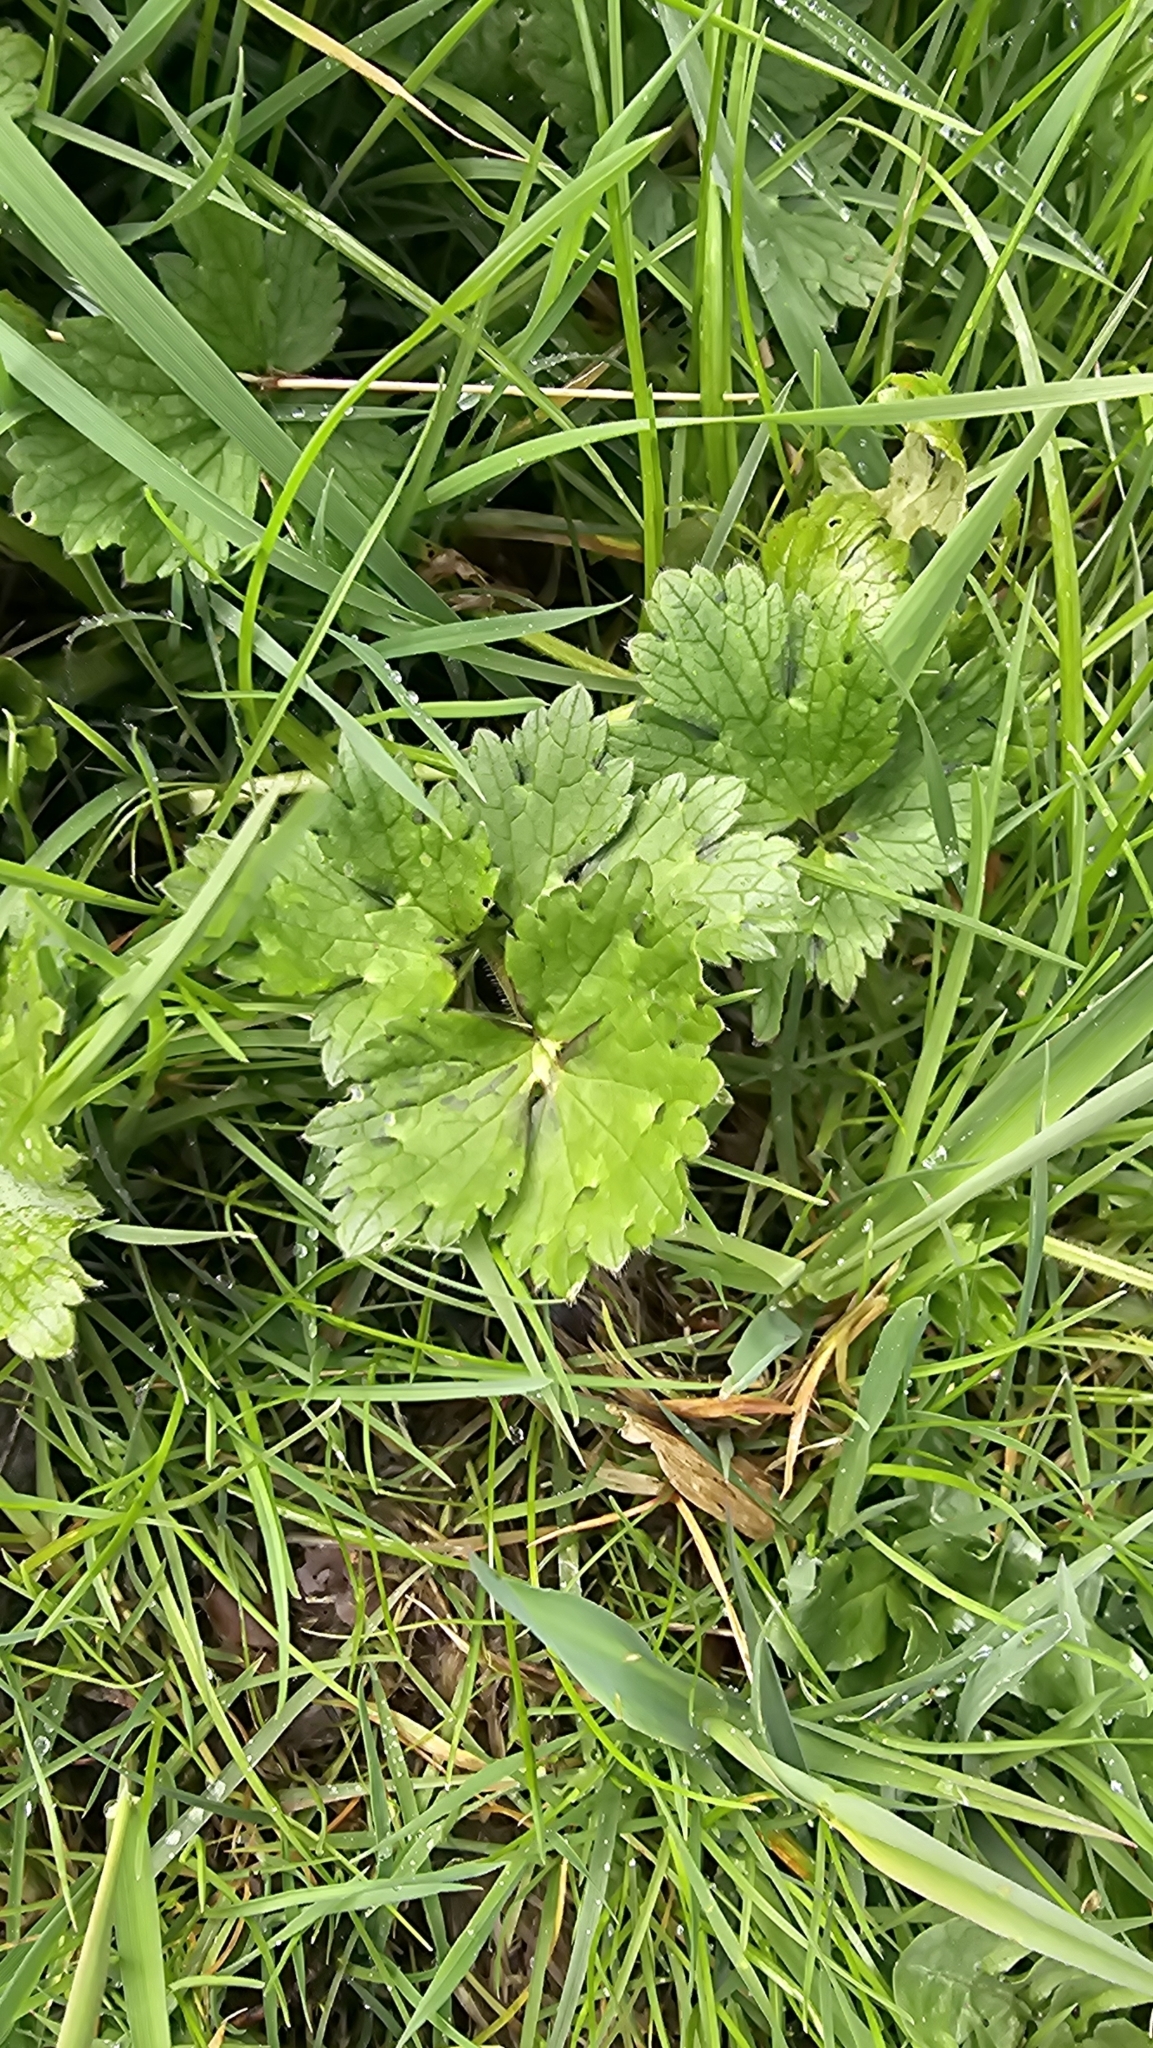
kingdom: Plantae
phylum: Tracheophyta
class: Magnoliopsida
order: Ranunculales
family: Ranunculaceae
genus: Ranunculus
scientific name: Ranunculus repens
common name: Creeping buttercup
